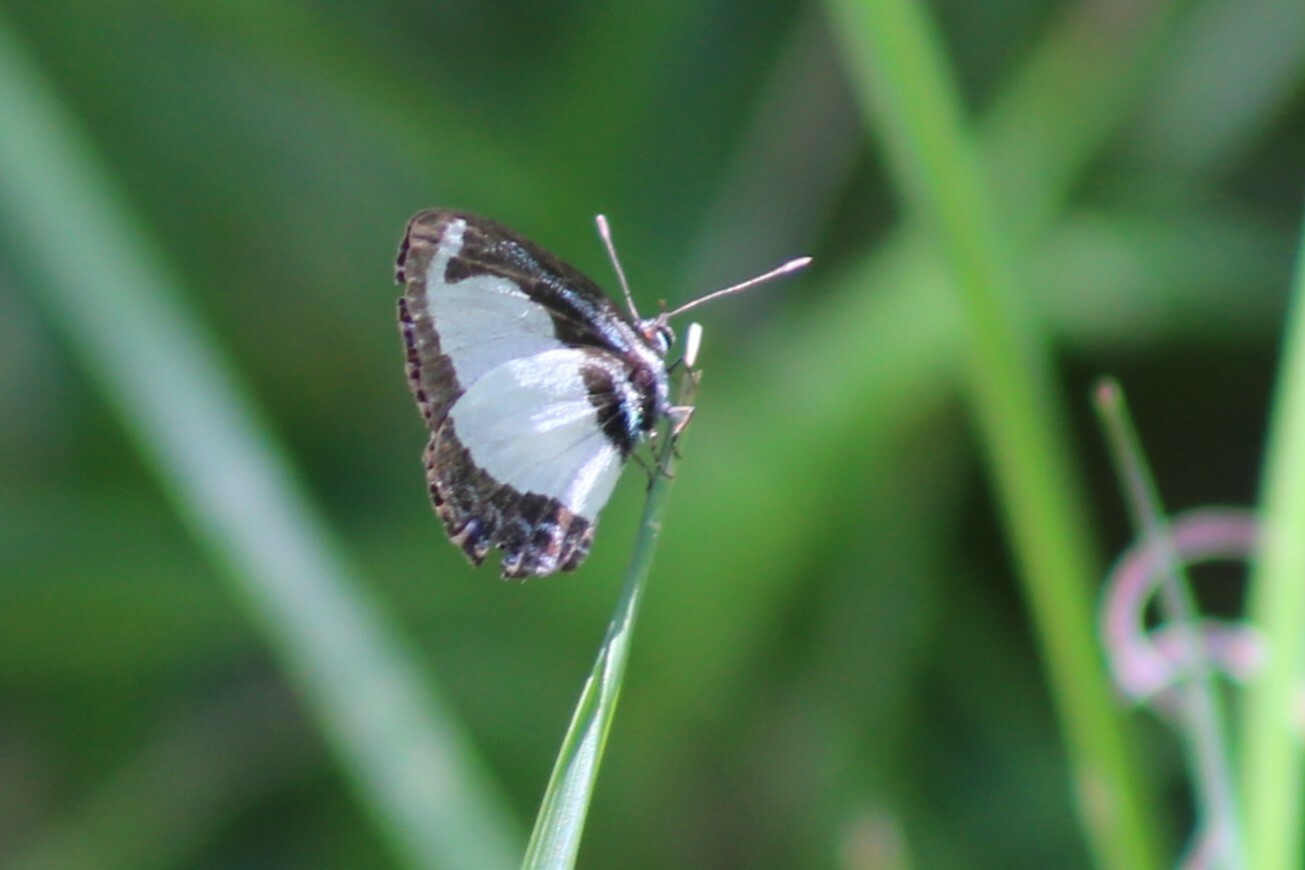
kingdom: Animalia
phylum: Arthropoda
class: Insecta
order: Lepidoptera
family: Lycaenidae
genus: Psychonotis
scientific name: Psychonotis caelius
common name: Small green banded blue
